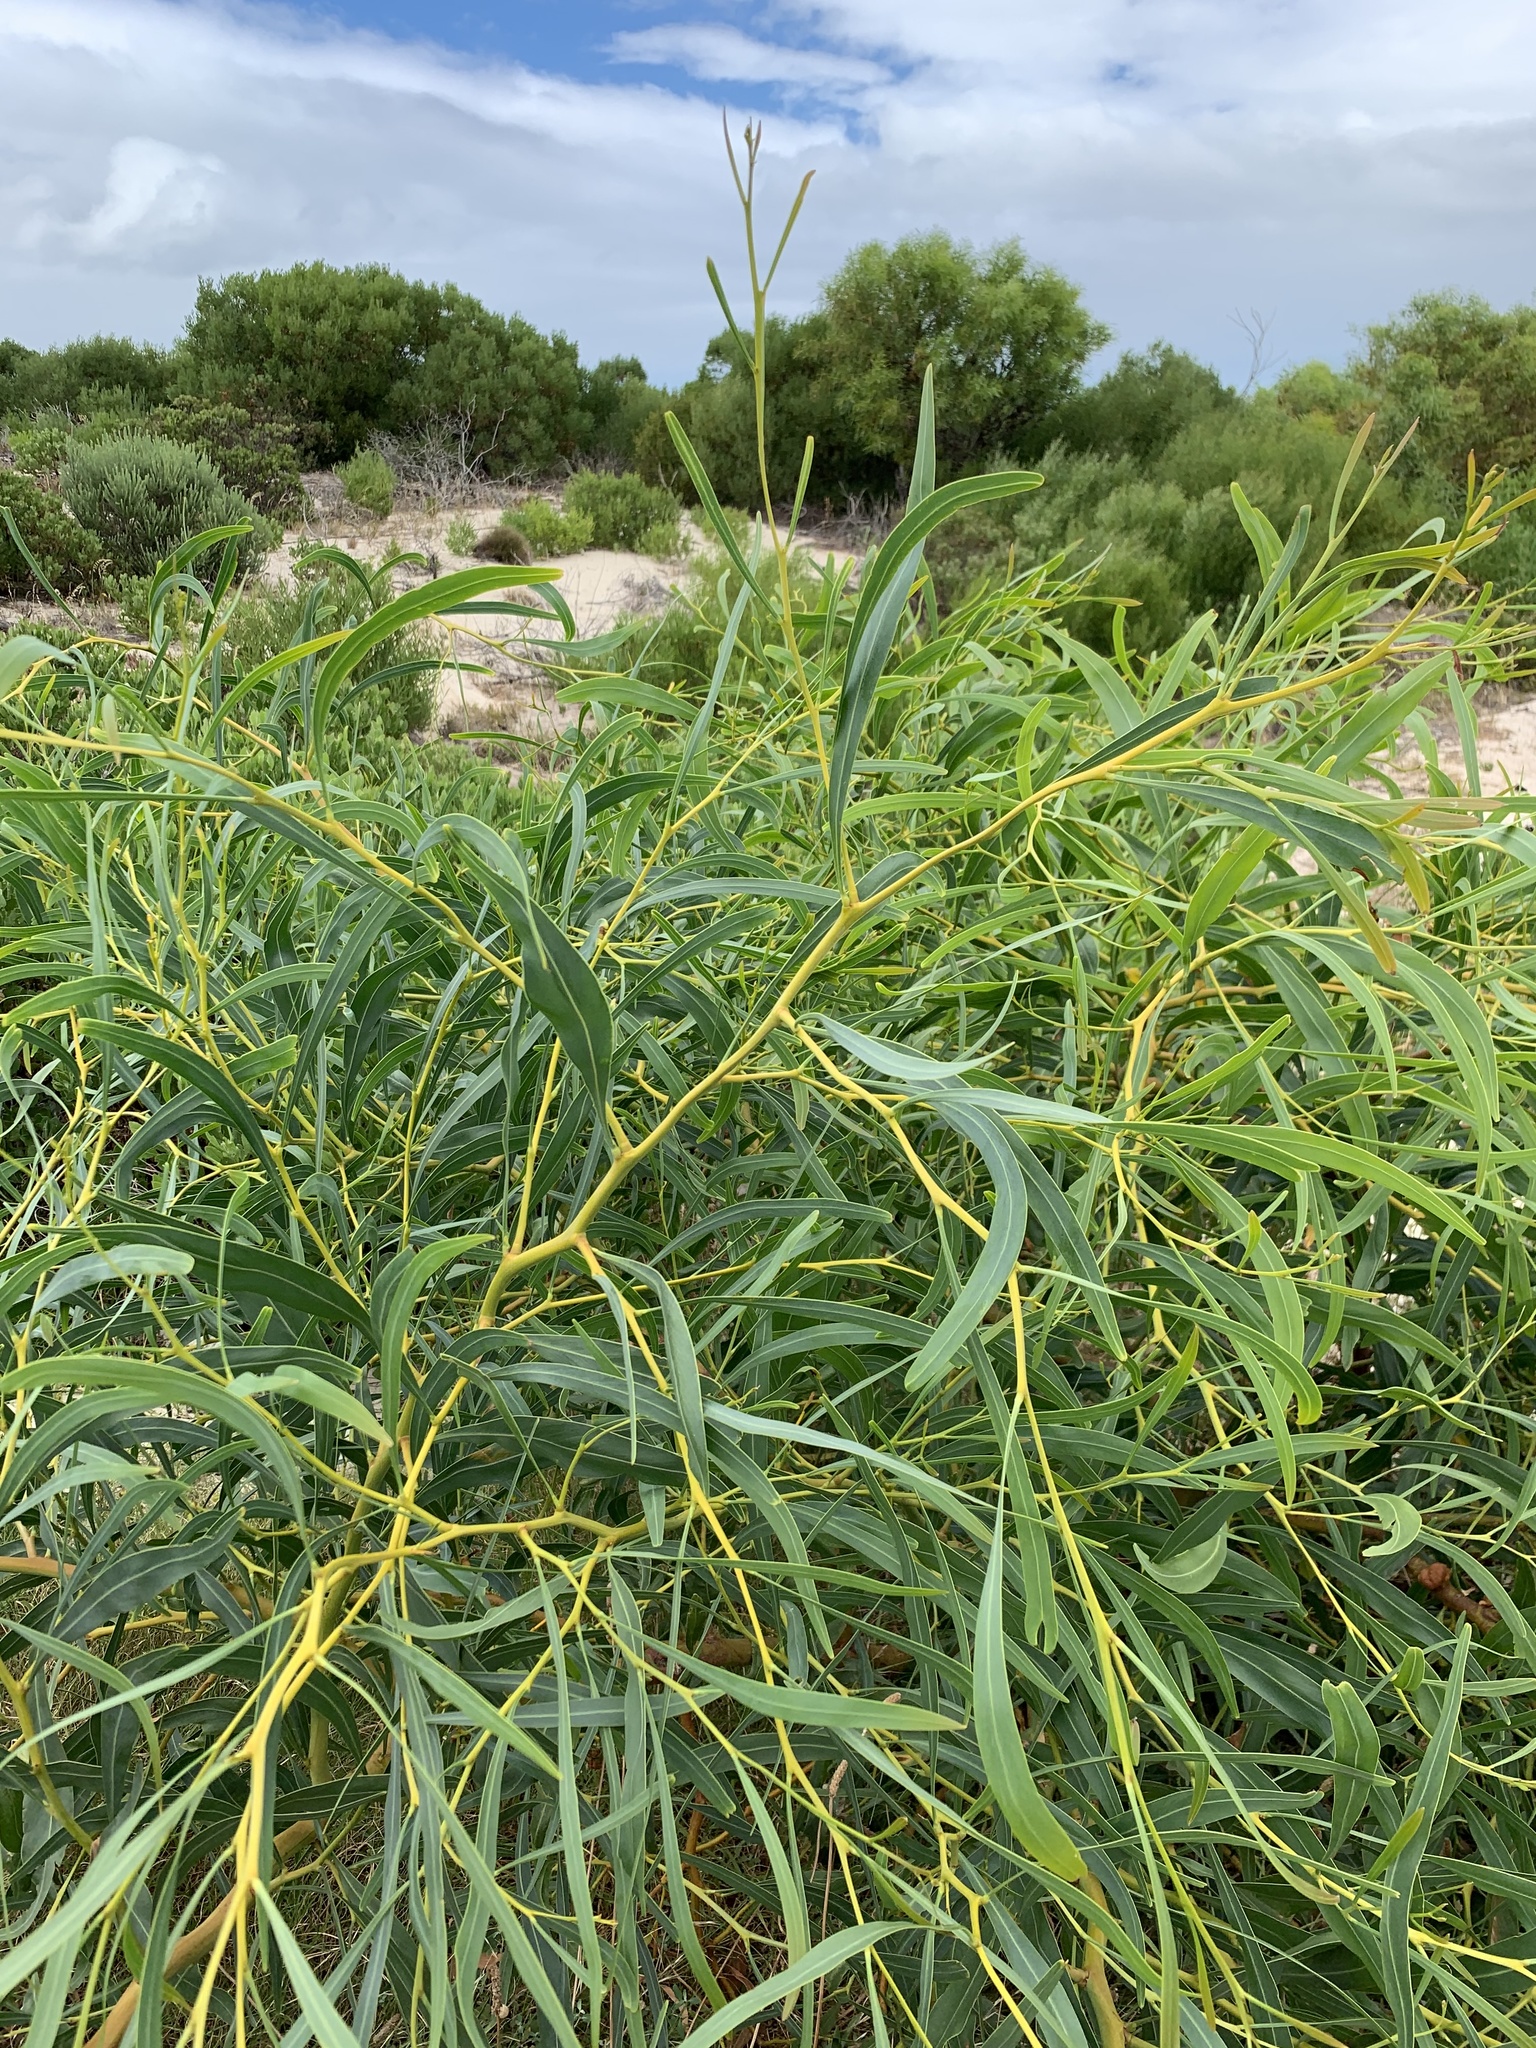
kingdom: Plantae
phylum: Tracheophyta
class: Magnoliopsida
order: Fabales
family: Fabaceae
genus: Acacia
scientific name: Acacia saligna
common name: Orange wattle
